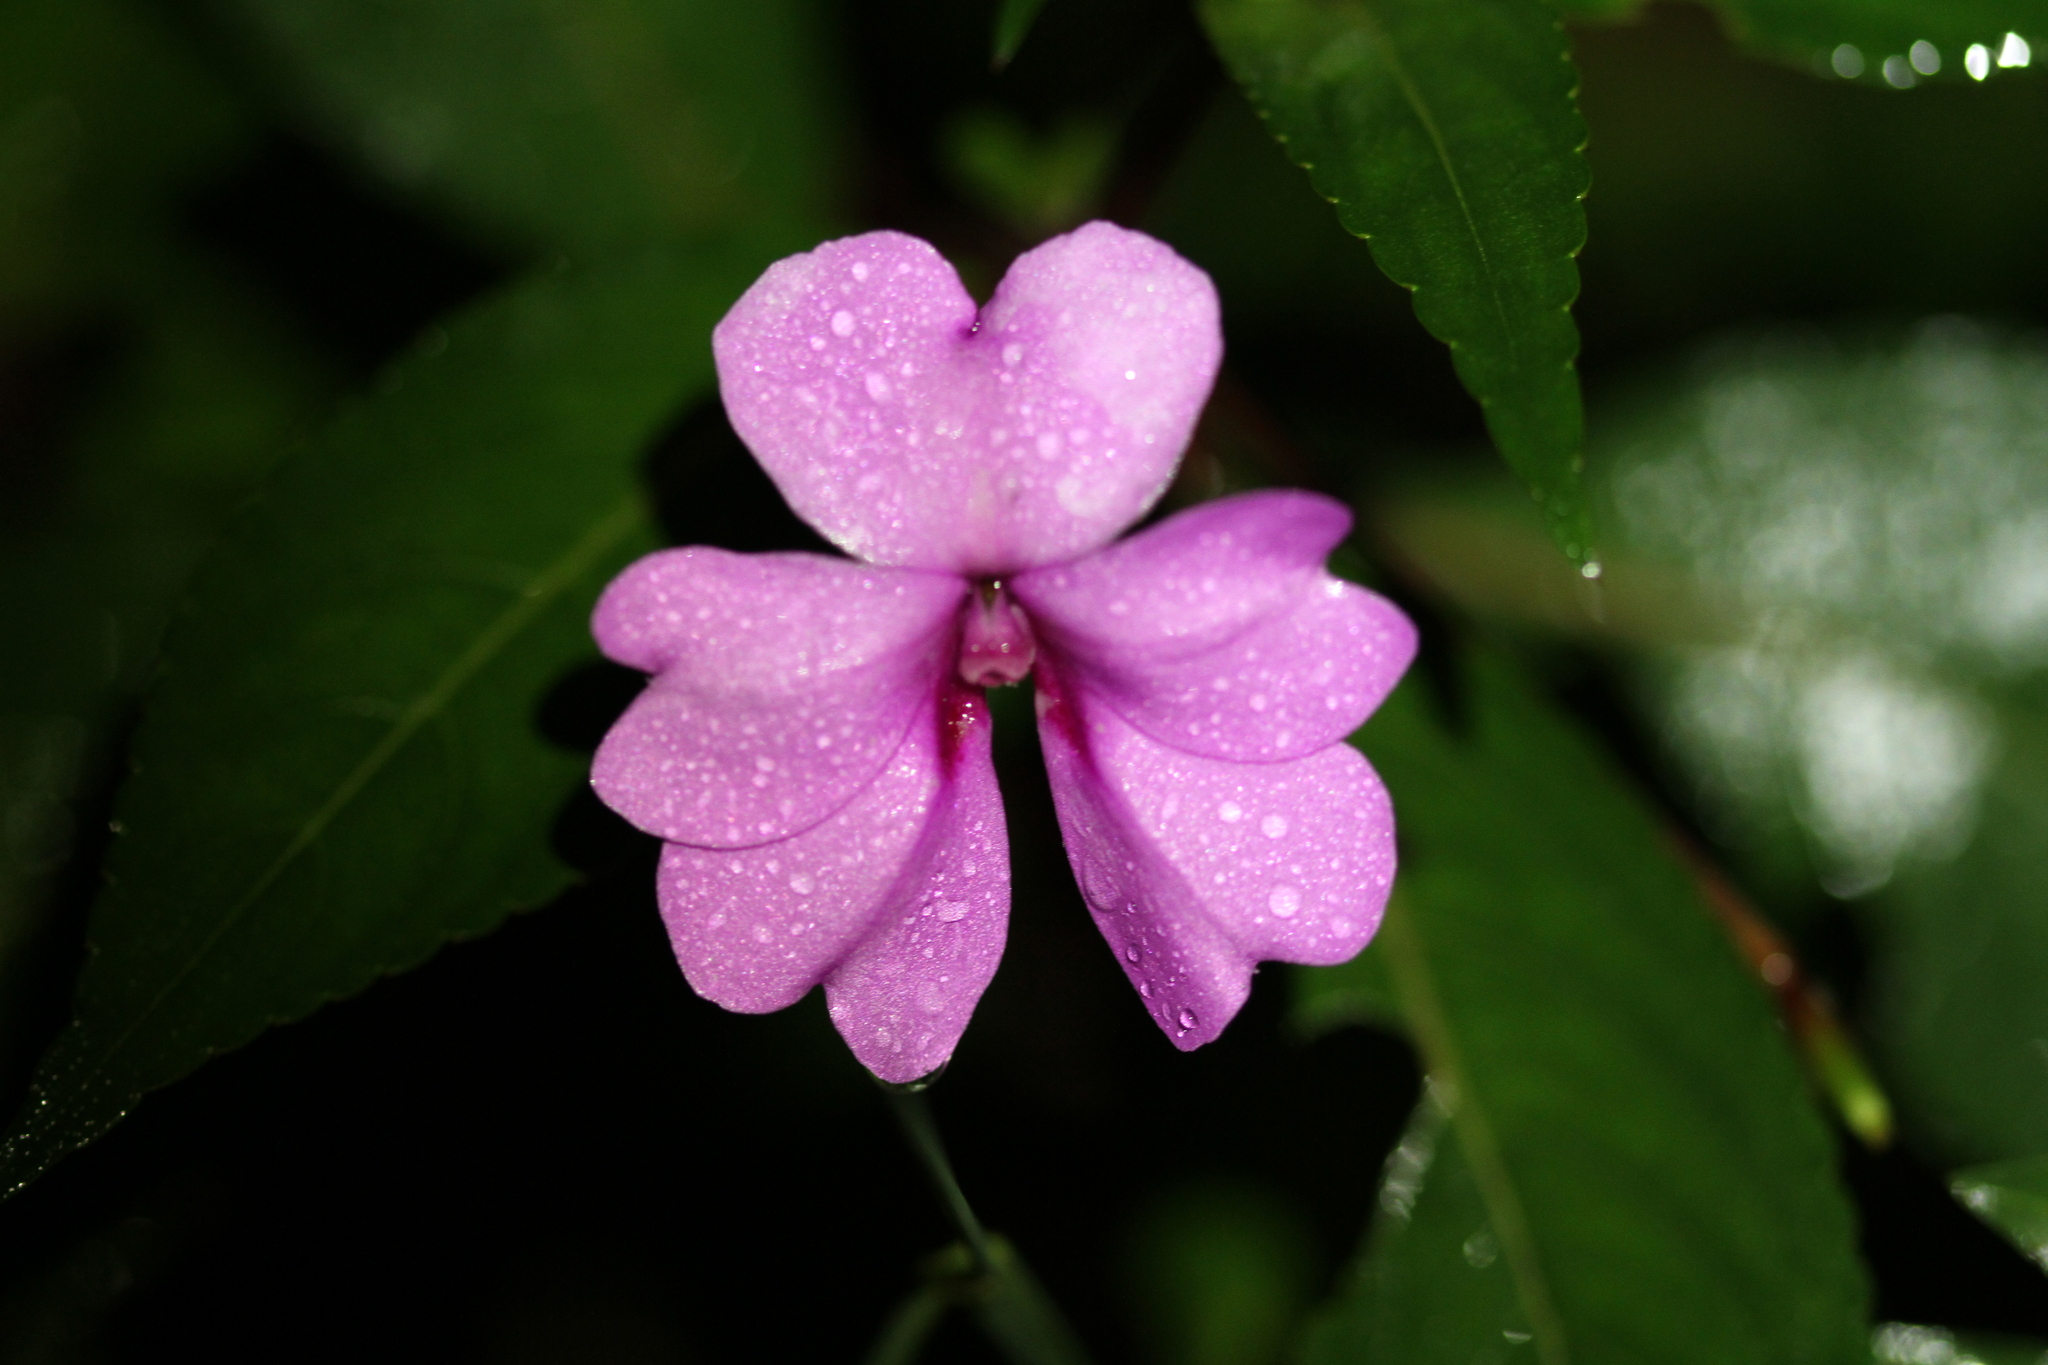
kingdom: Plantae
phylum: Tracheophyta
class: Magnoliopsida
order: Ericales
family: Balsaminaceae
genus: Impatiens
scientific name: Impatiens platypetala
